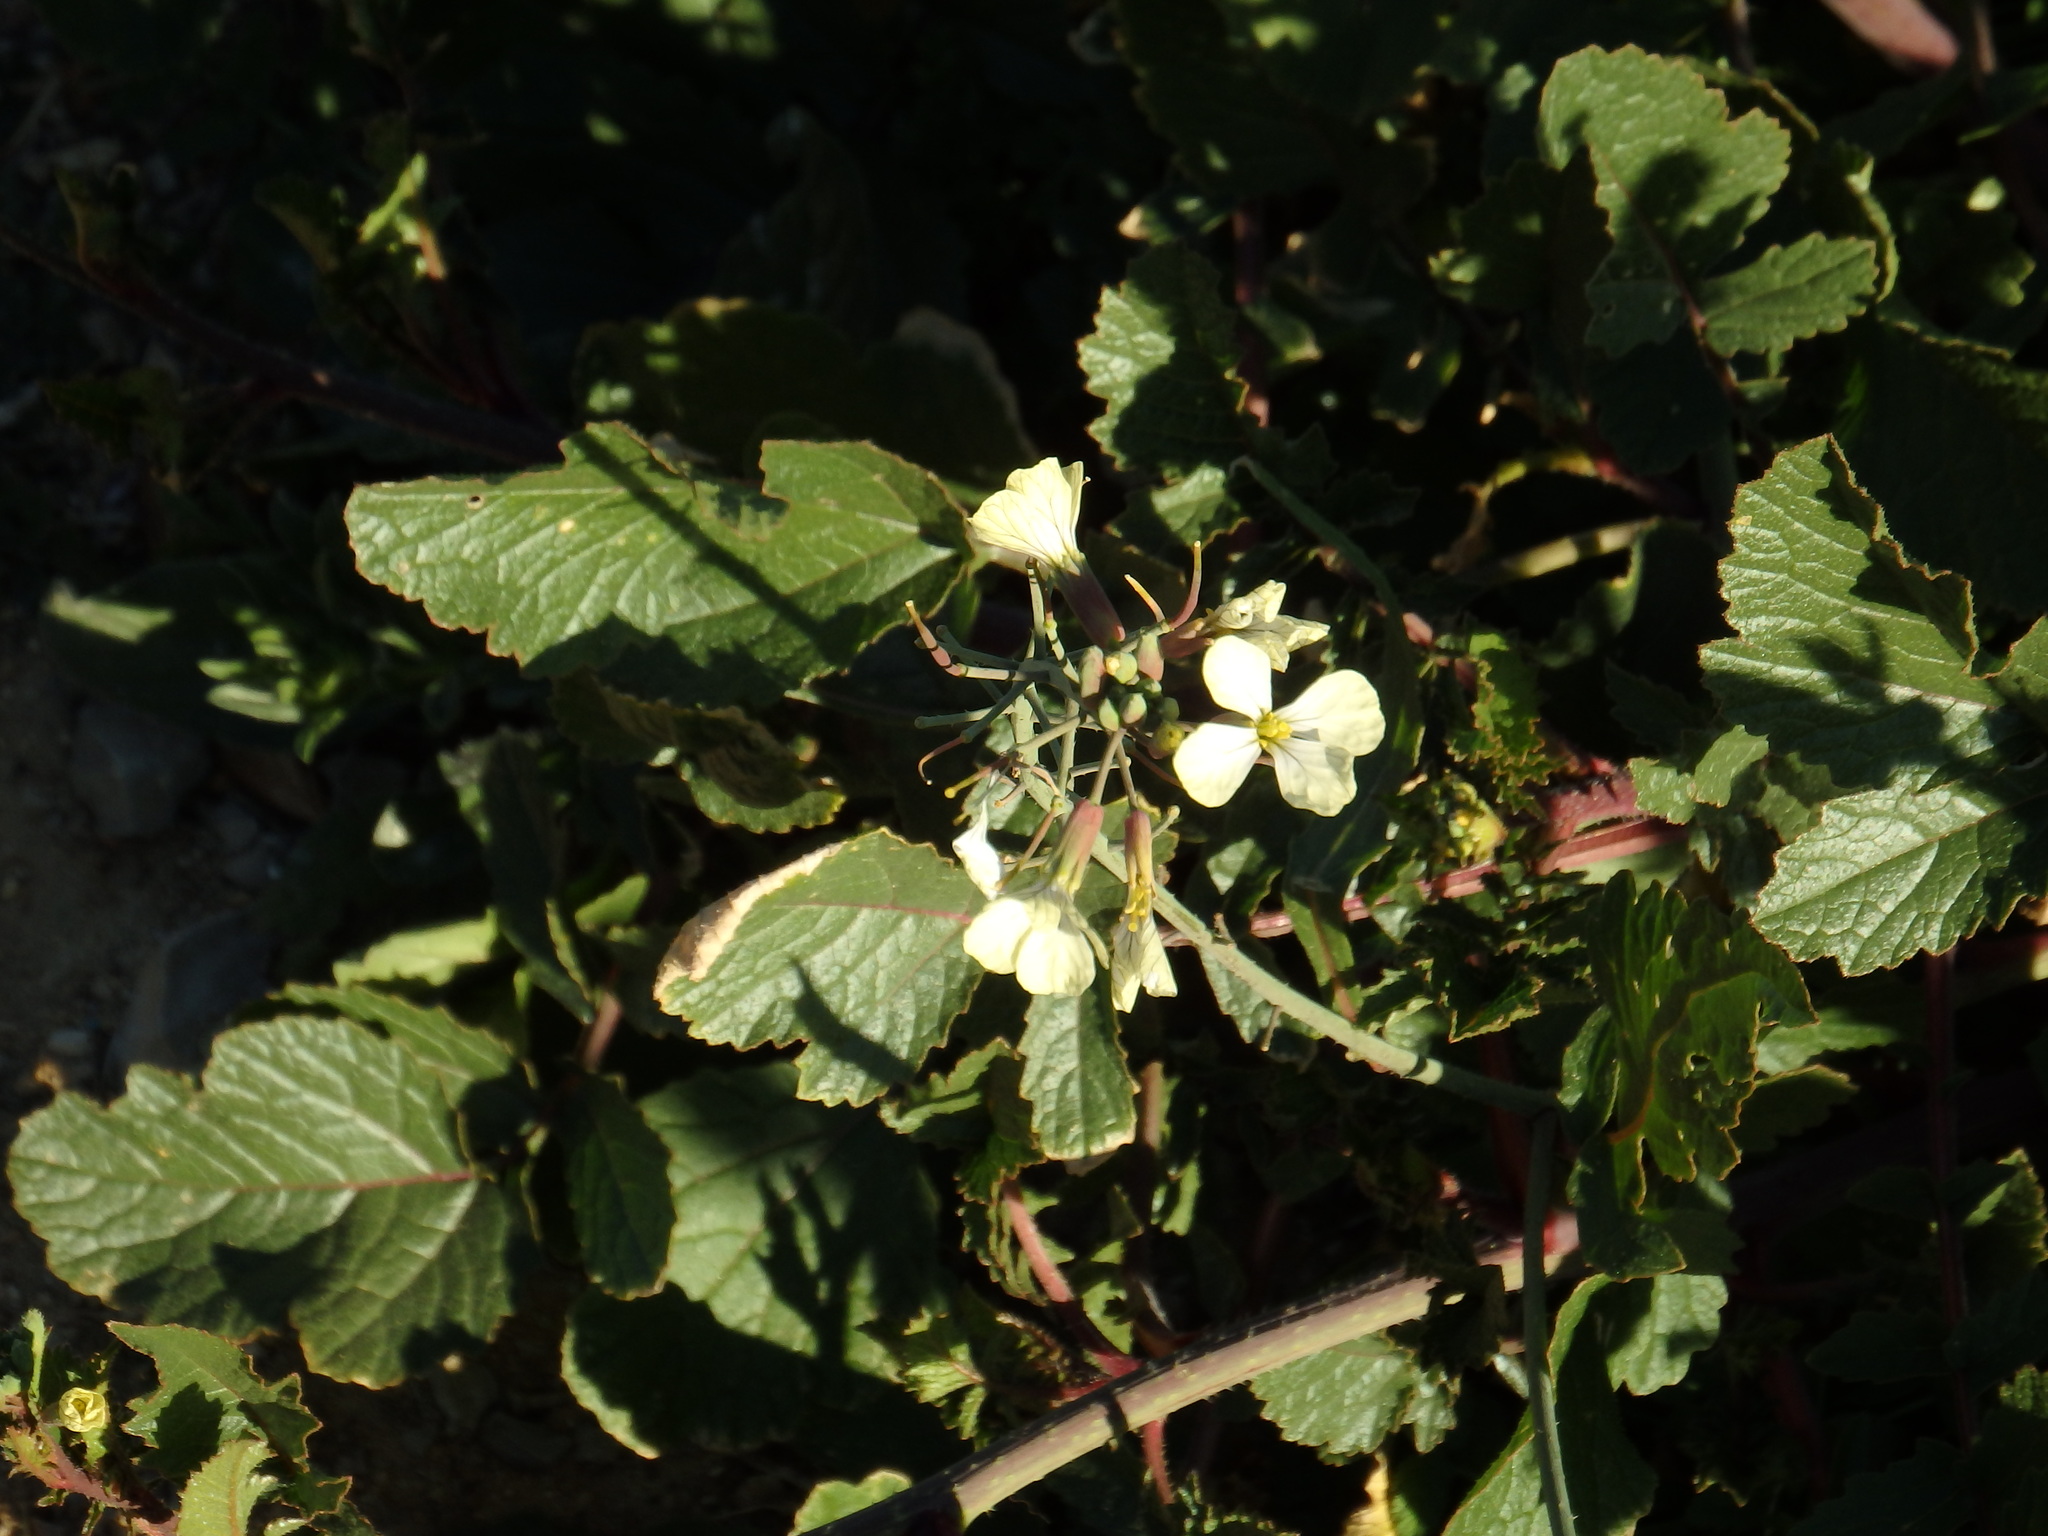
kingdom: Plantae
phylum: Tracheophyta
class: Magnoliopsida
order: Brassicales
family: Brassicaceae
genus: Raphanus
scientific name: Raphanus raphanistrum
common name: Wild radish
